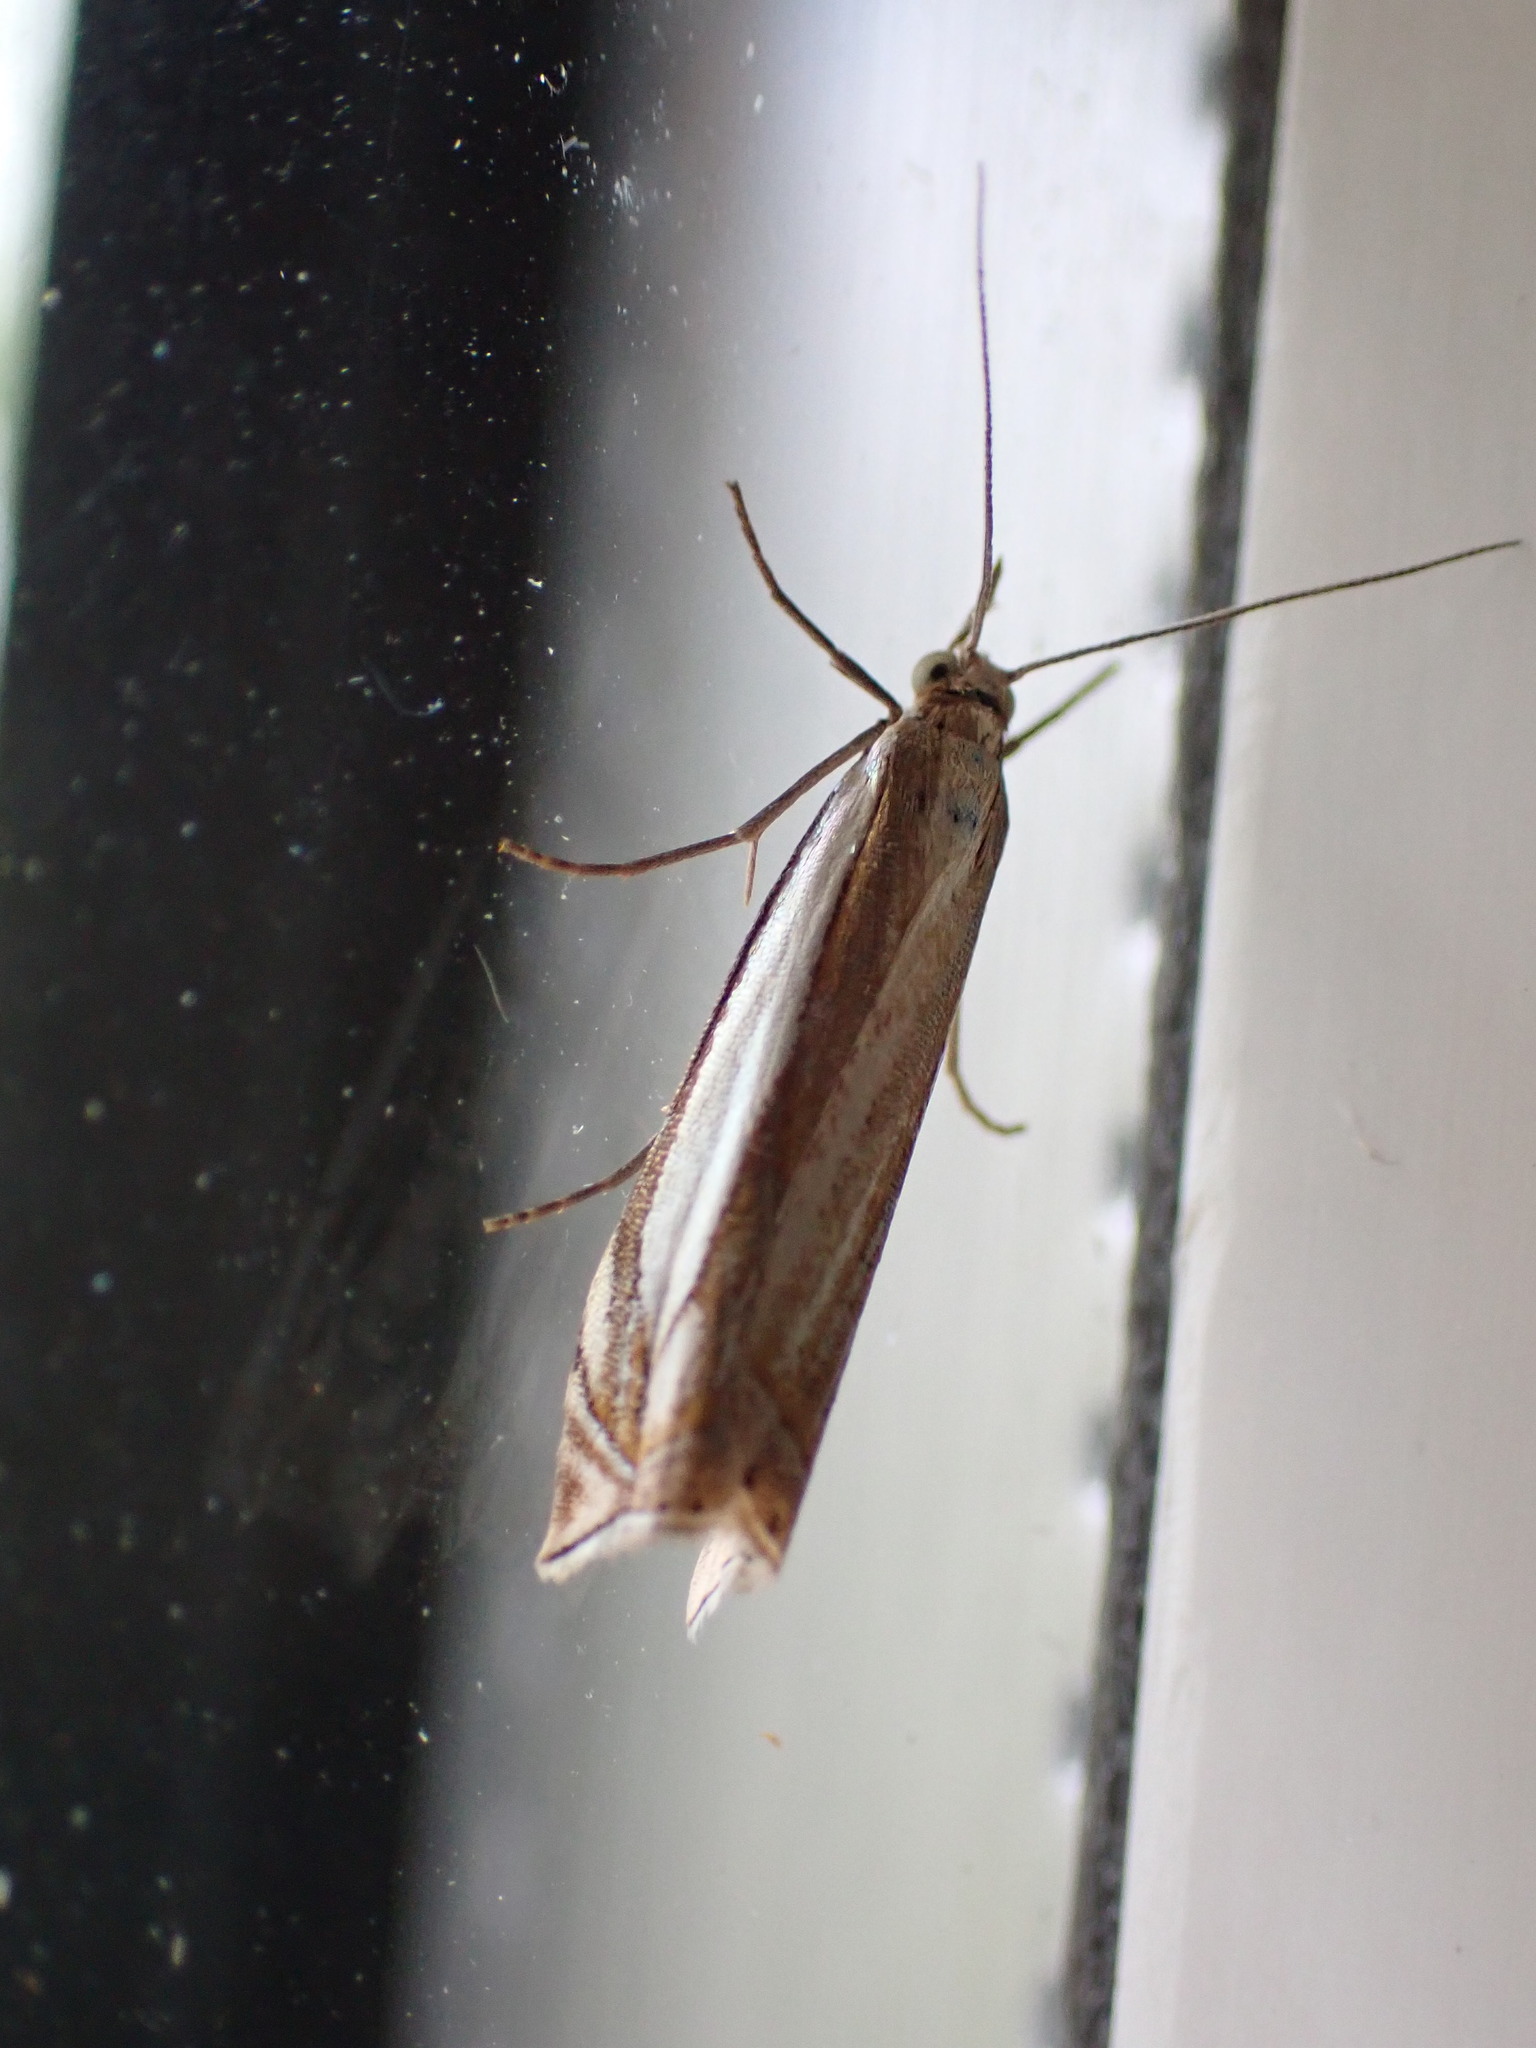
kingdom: Animalia
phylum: Arthropoda
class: Insecta
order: Lepidoptera
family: Crambidae
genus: Crambus
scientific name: Crambus pascuella
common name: Inlaid grass-veneer
